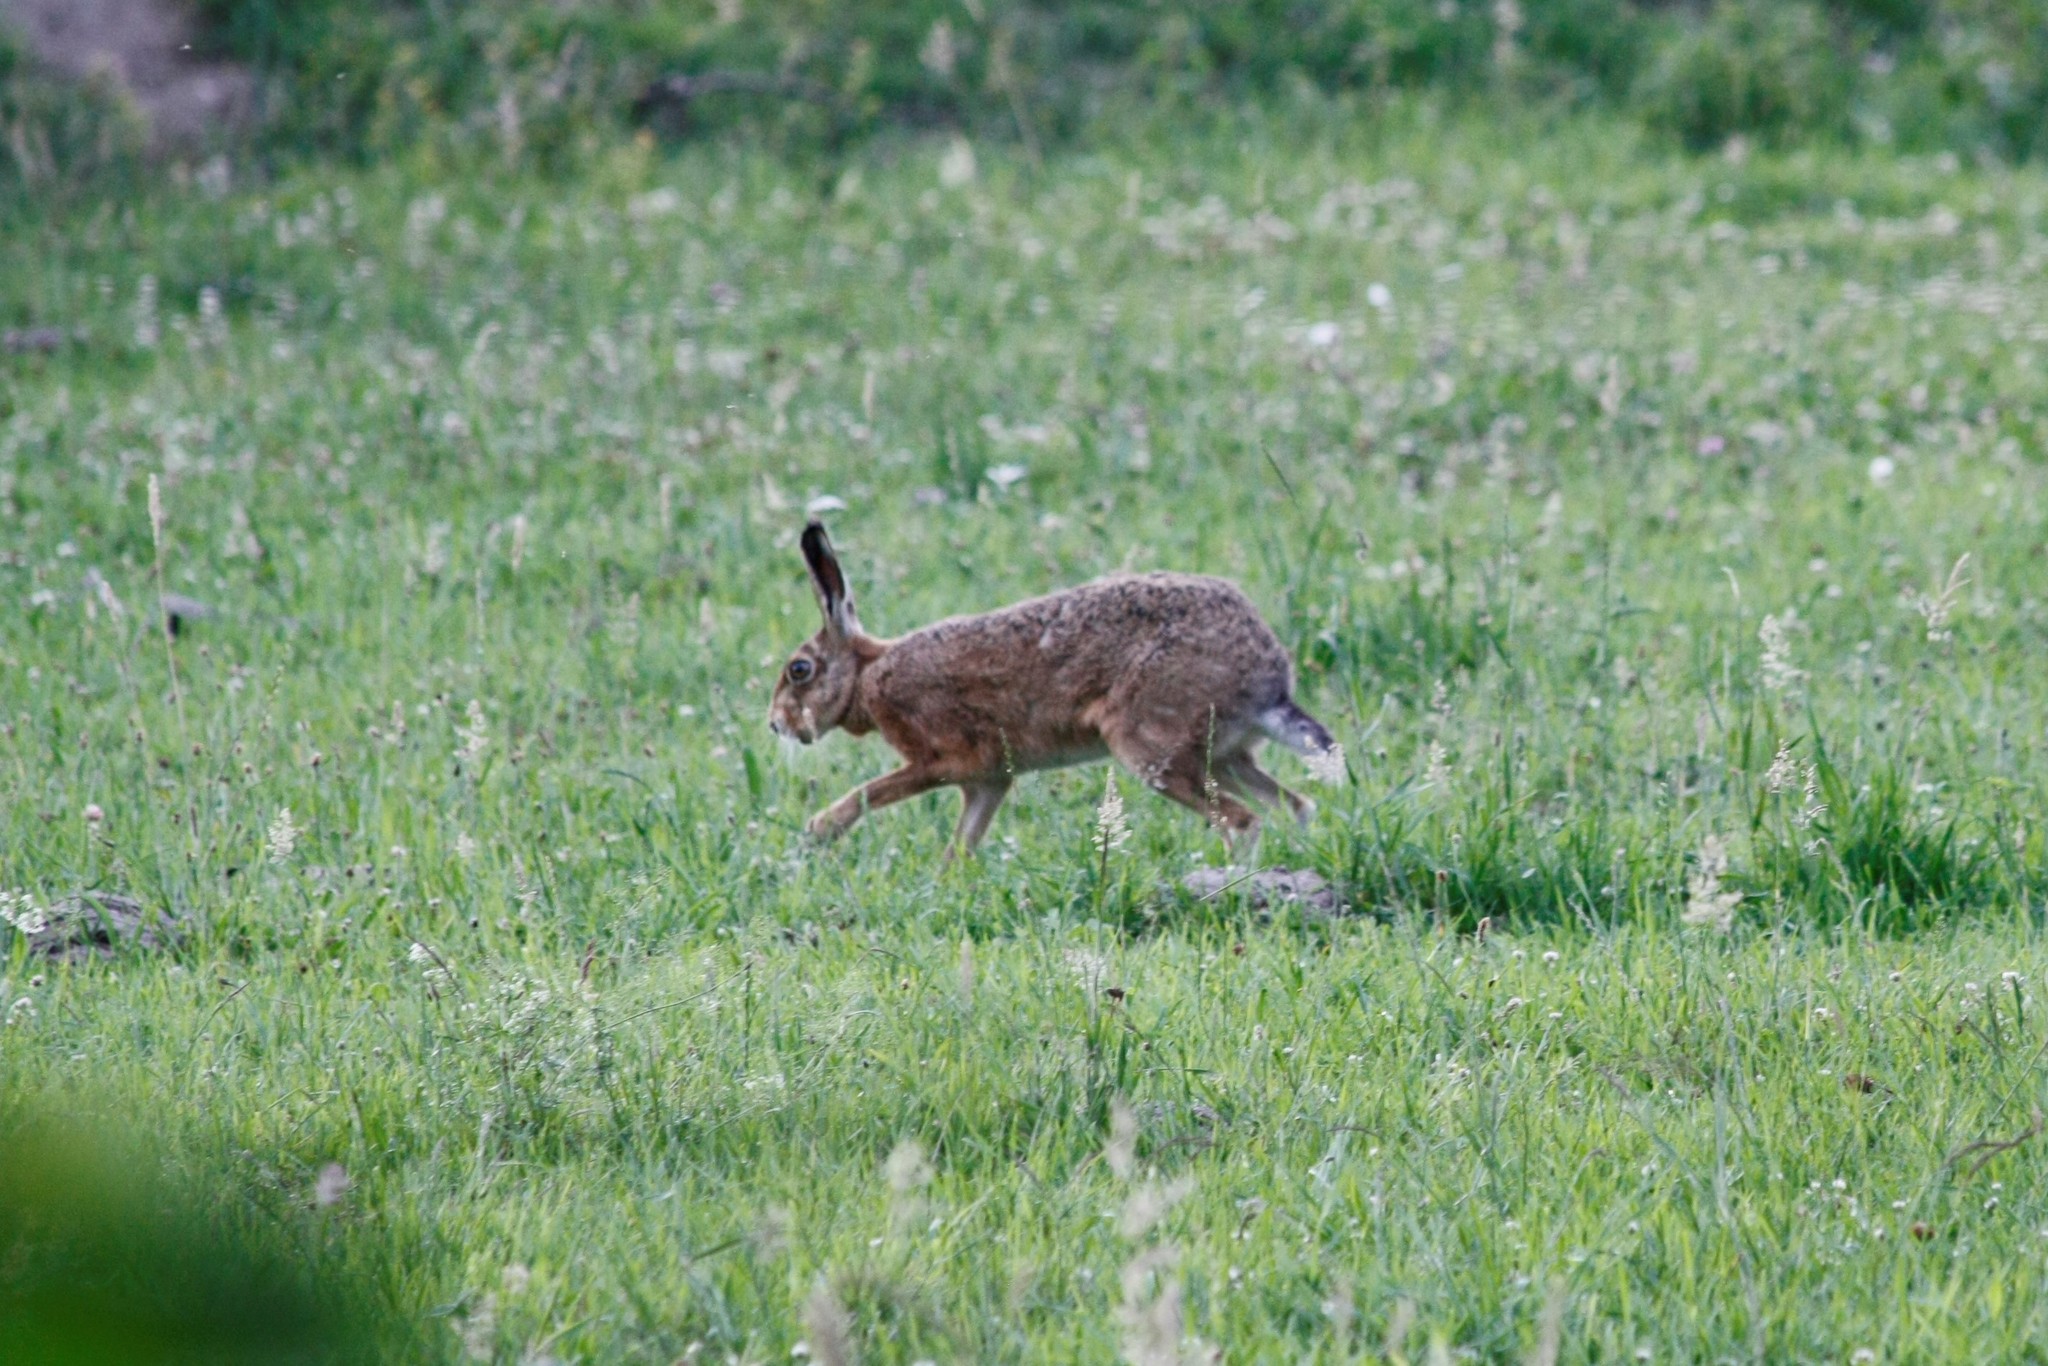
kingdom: Animalia
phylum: Chordata
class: Mammalia
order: Lagomorpha
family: Leporidae
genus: Lepus
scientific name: Lepus europaeus
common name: European hare
